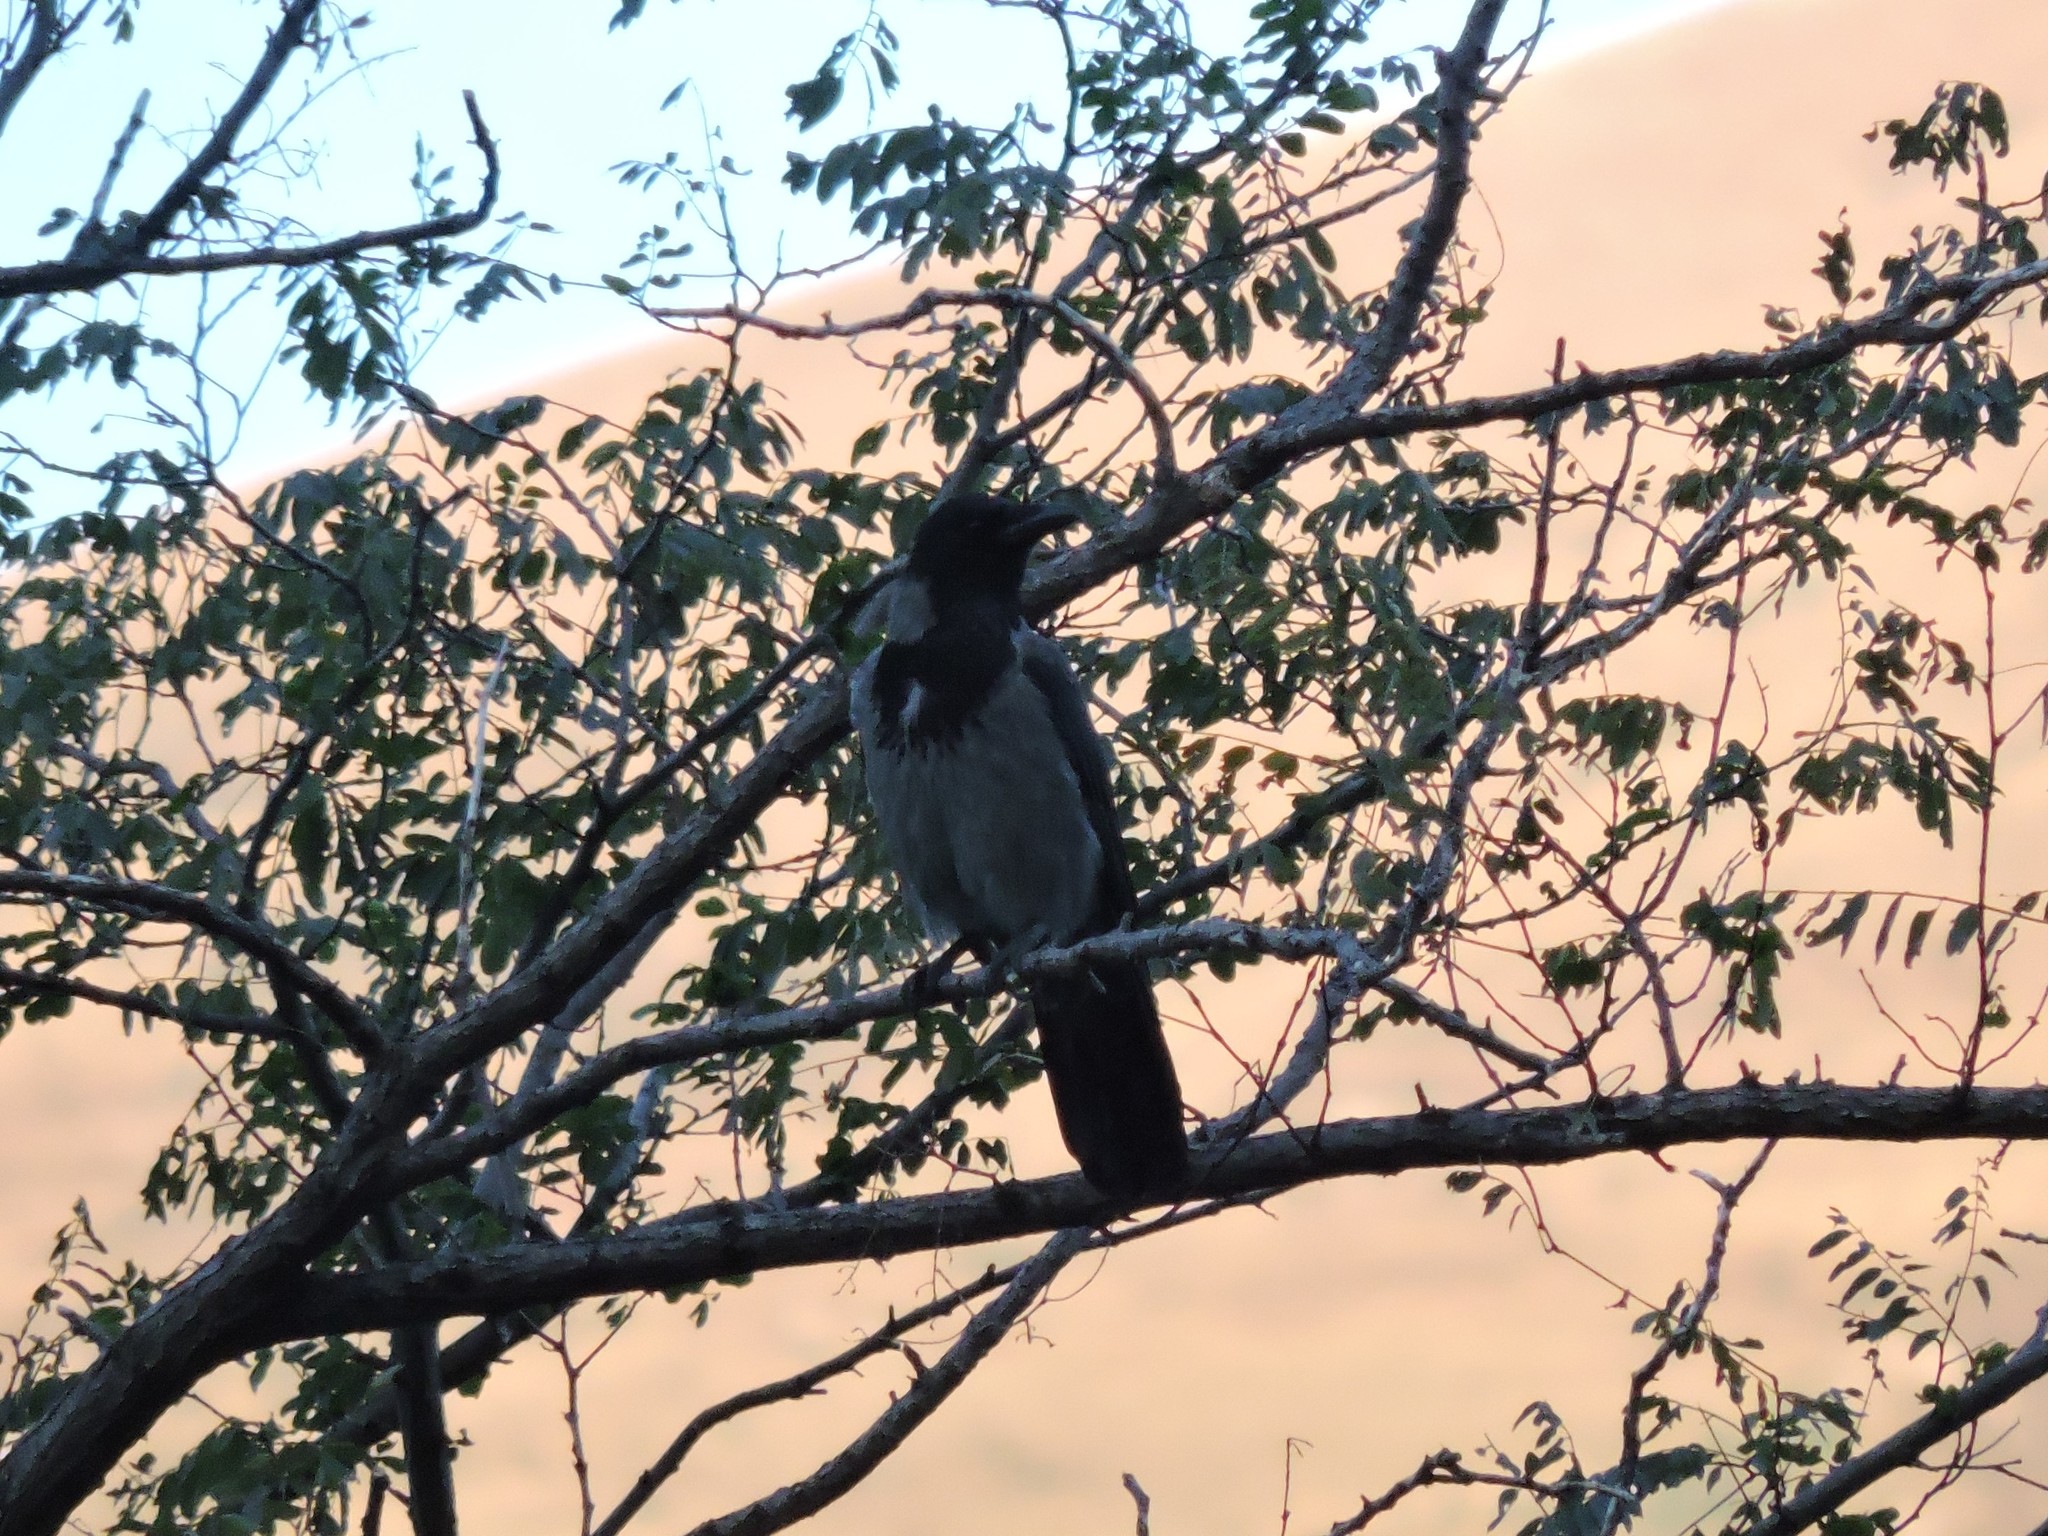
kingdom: Animalia
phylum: Chordata
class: Aves
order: Passeriformes
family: Corvidae
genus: Corvus
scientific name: Corvus cornix
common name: Hooded crow
